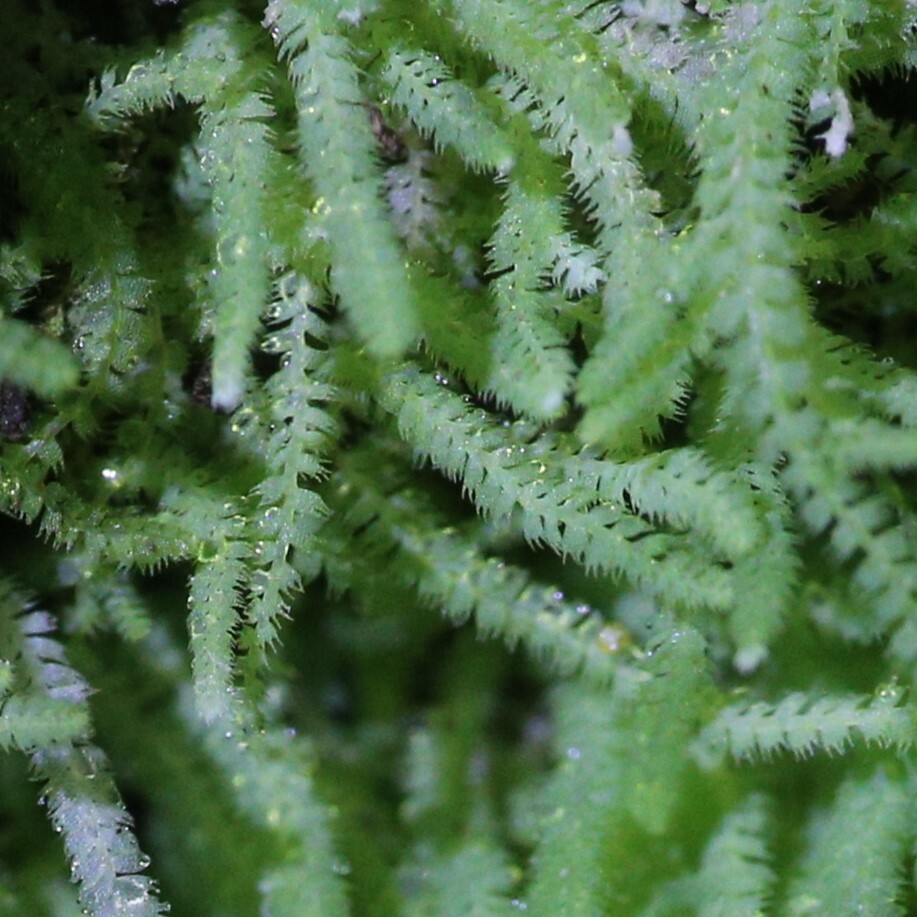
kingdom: Plantae
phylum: Marchantiophyta
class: Jungermanniopsida
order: Jungermanniales
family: Lepidoziaceae
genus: Ceramanus
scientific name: Ceramanus centipes
